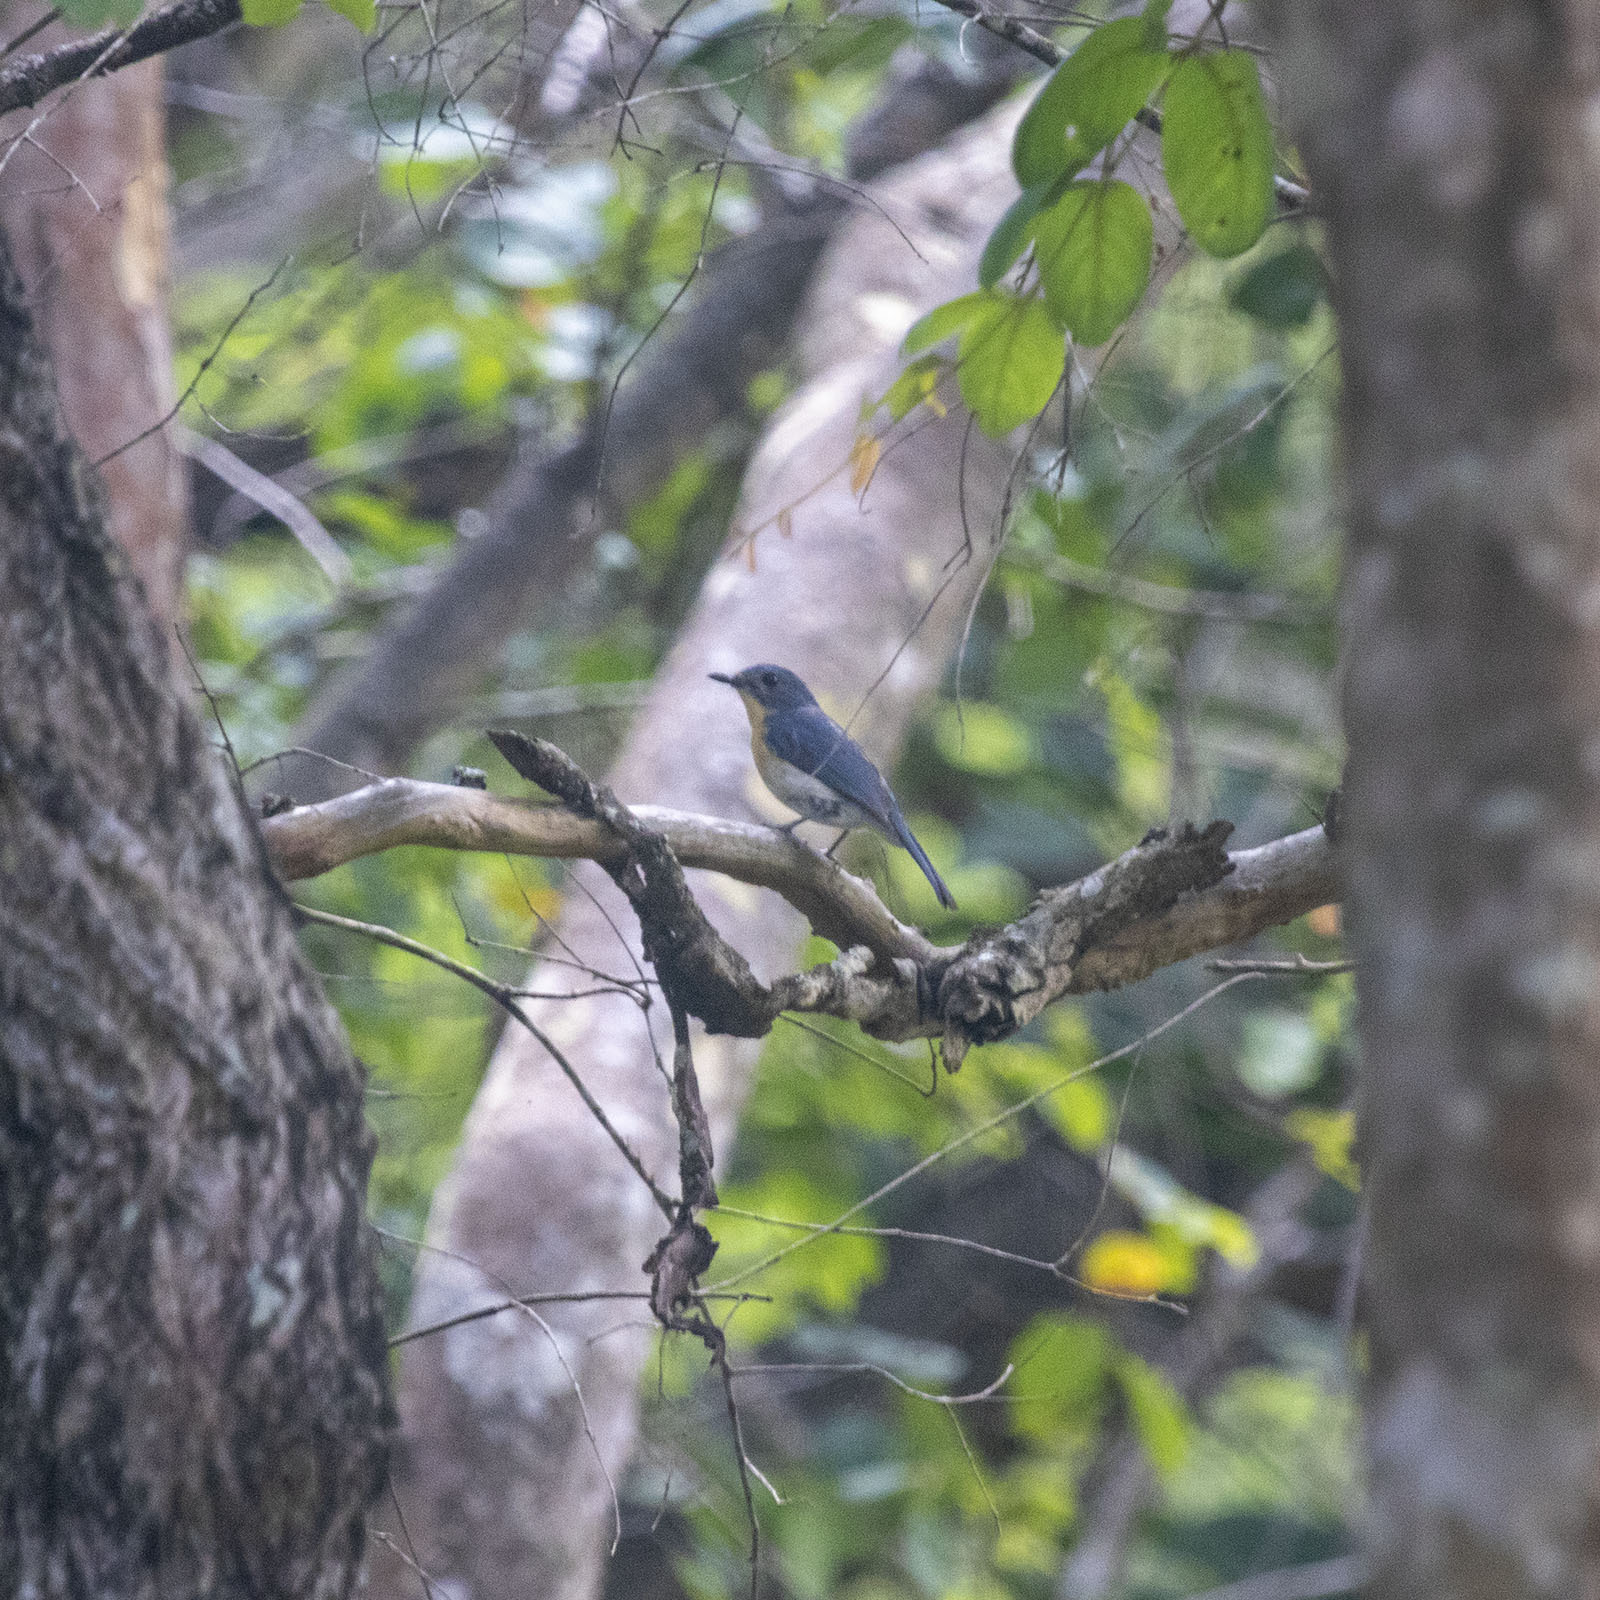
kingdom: Animalia
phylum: Chordata
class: Aves
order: Passeriformes
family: Muscicapidae
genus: Cyornis
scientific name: Cyornis tickelliae
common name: Tickell's blue flycatcher
